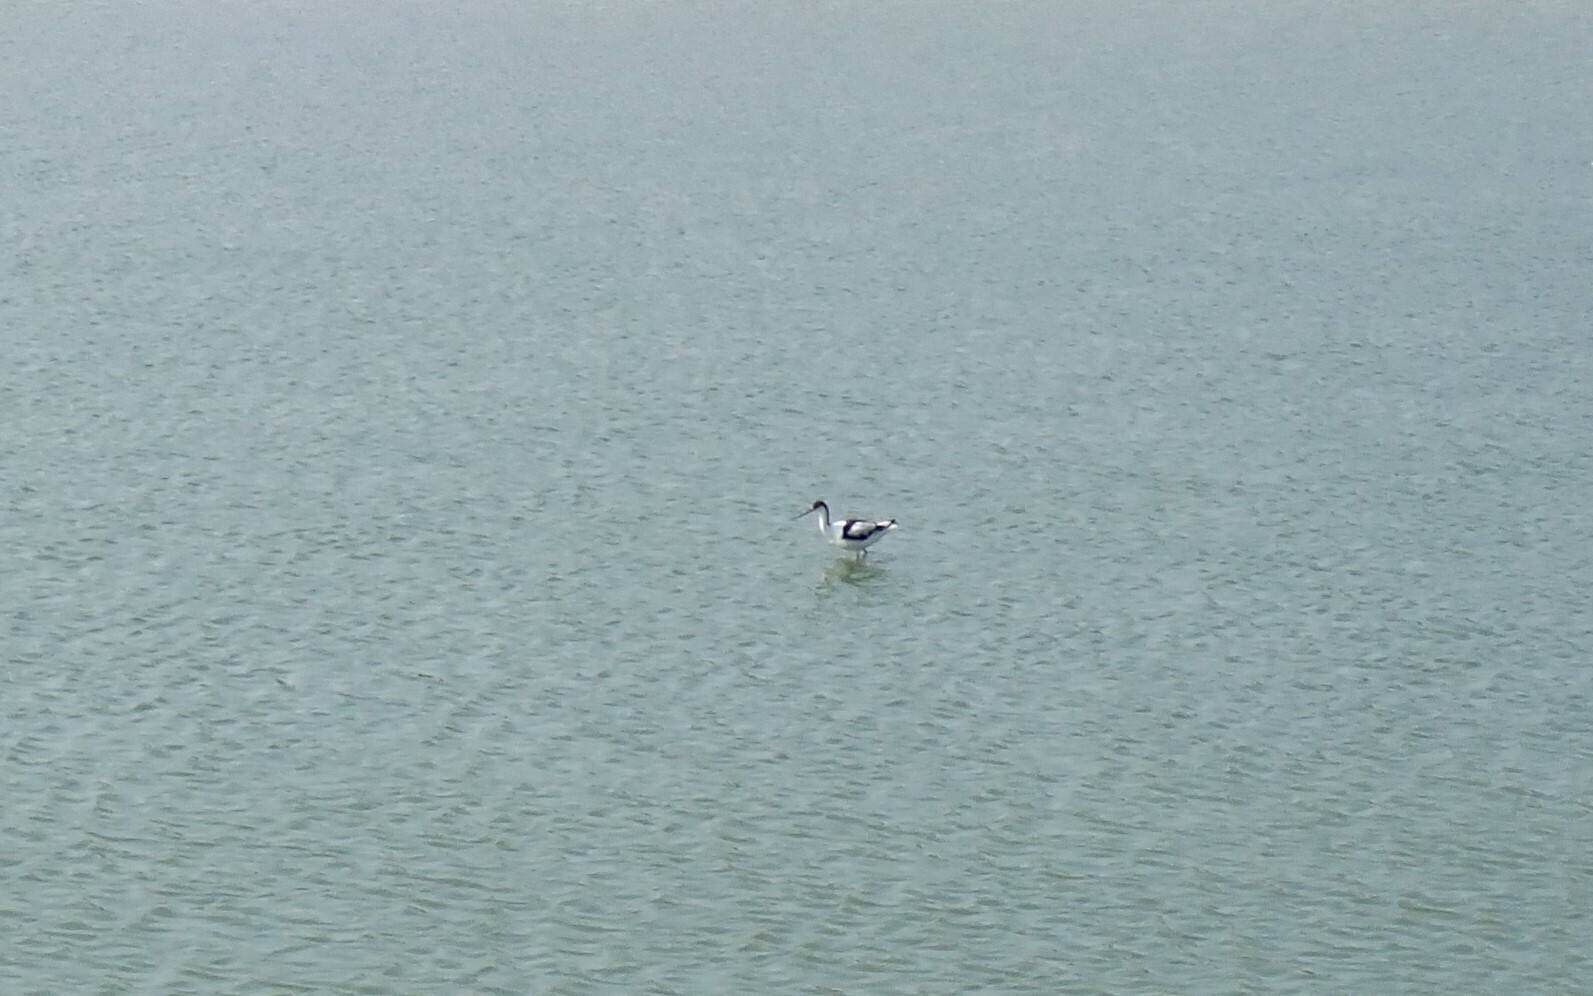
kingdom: Animalia
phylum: Chordata
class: Aves
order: Charadriiformes
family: Recurvirostridae
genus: Recurvirostra
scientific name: Recurvirostra avosetta
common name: Pied avocet
